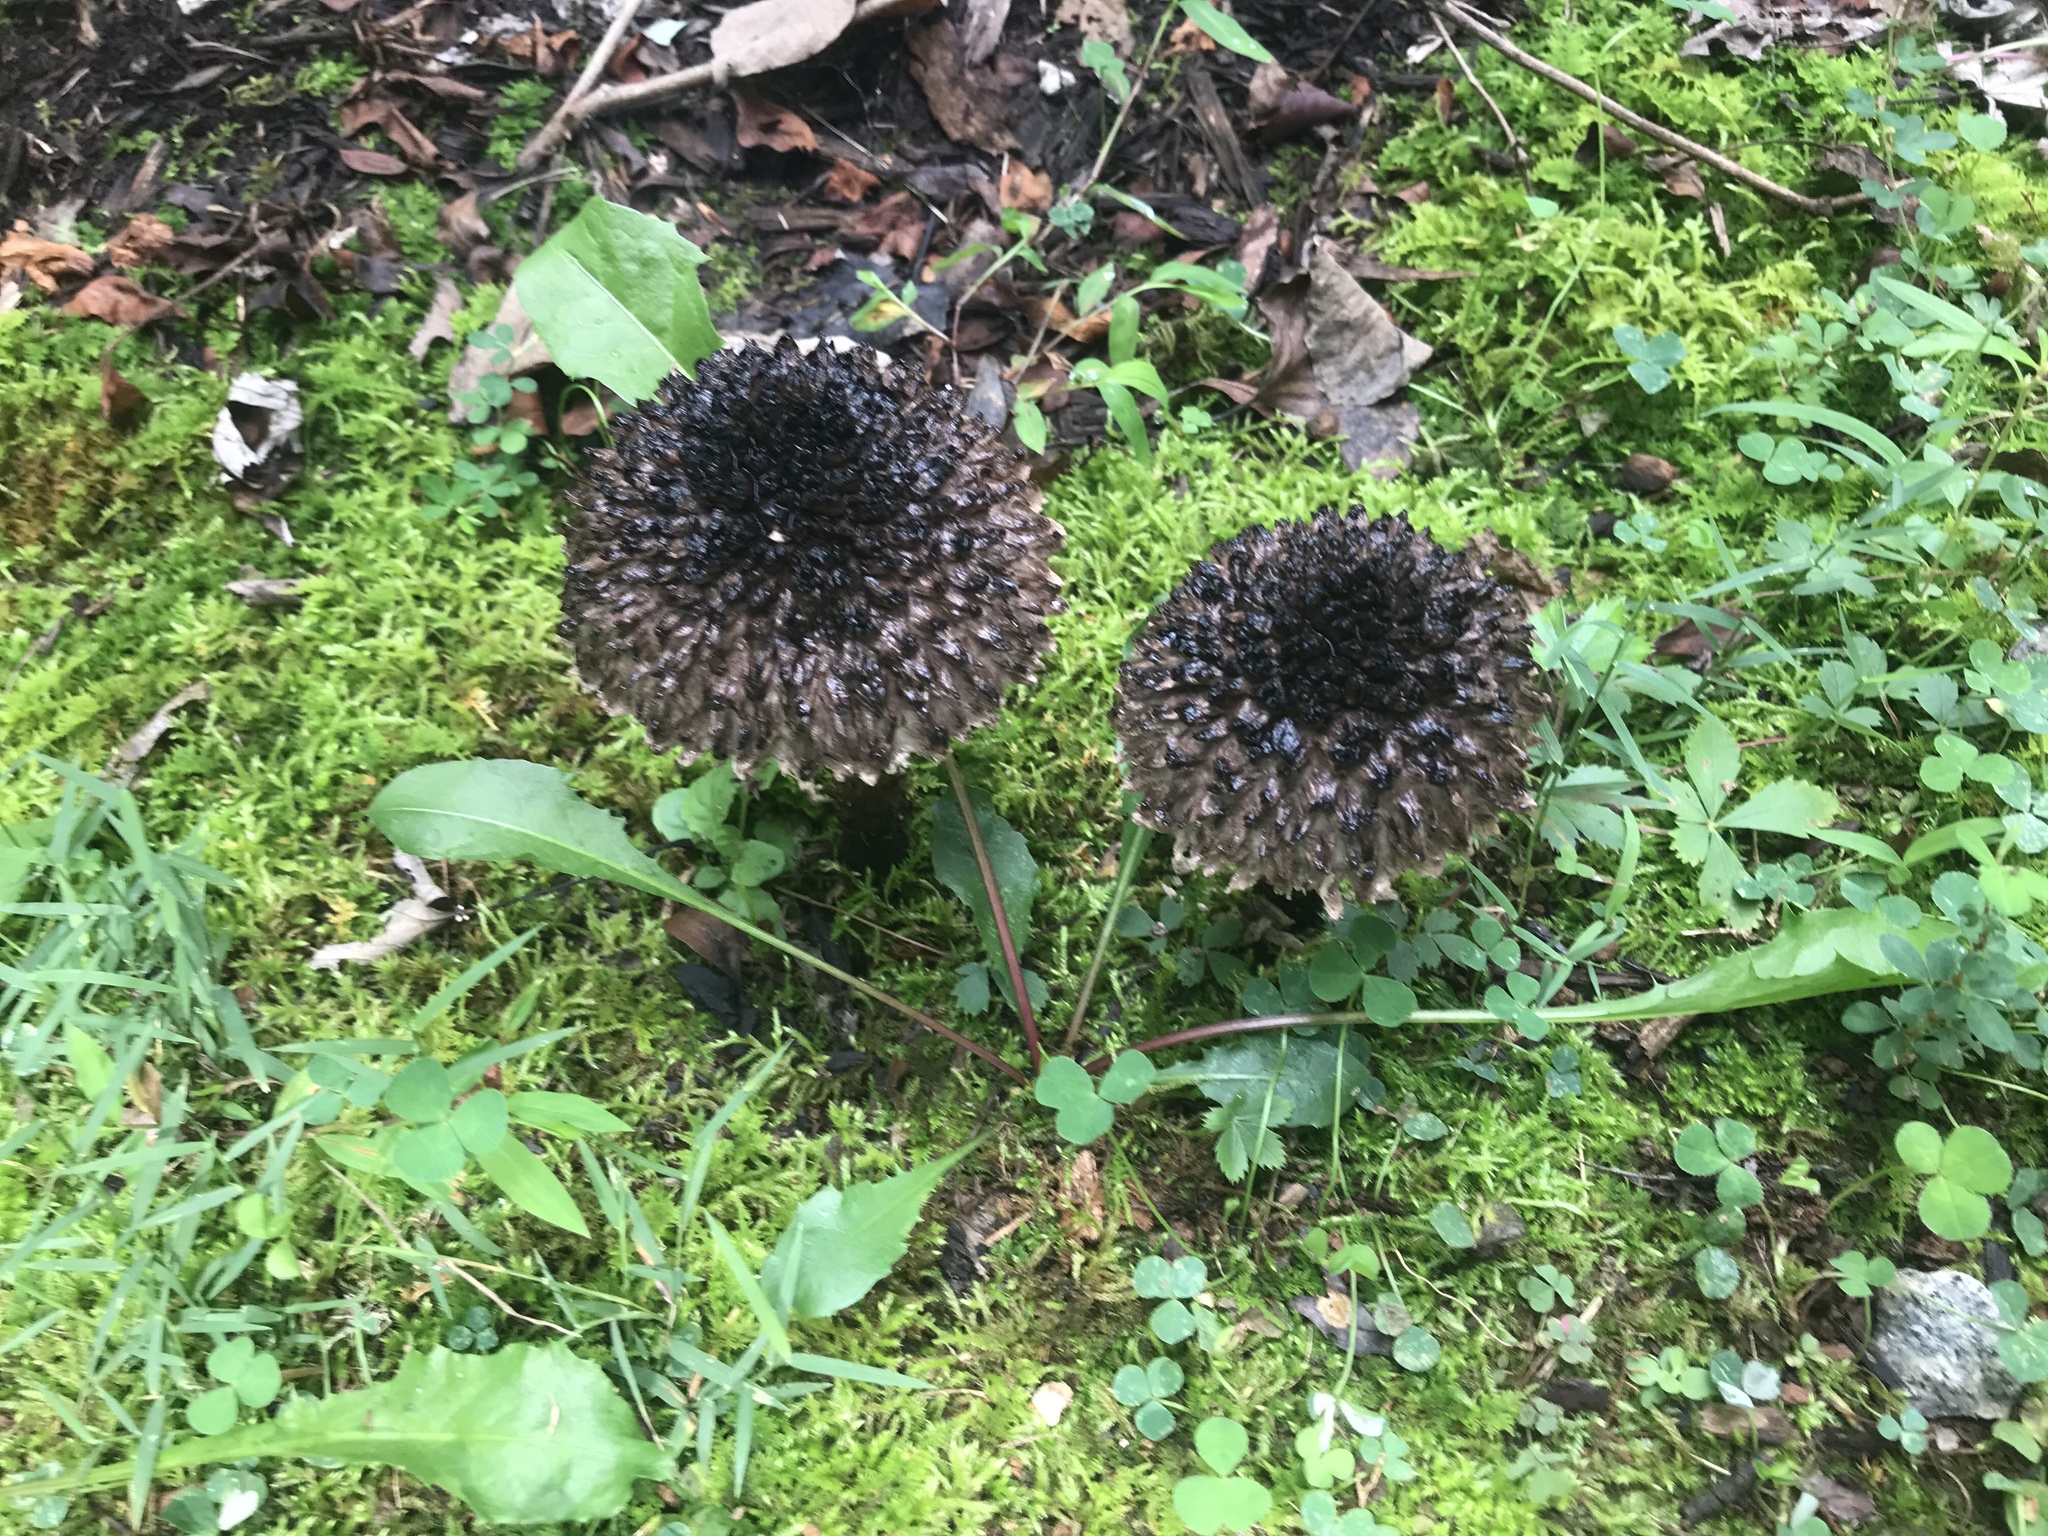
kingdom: Fungi
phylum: Basidiomycota
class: Agaricomycetes
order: Boletales
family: Boletaceae
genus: Strobilomyces
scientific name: Strobilomyces strobilaceus
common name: Old man of the woods
